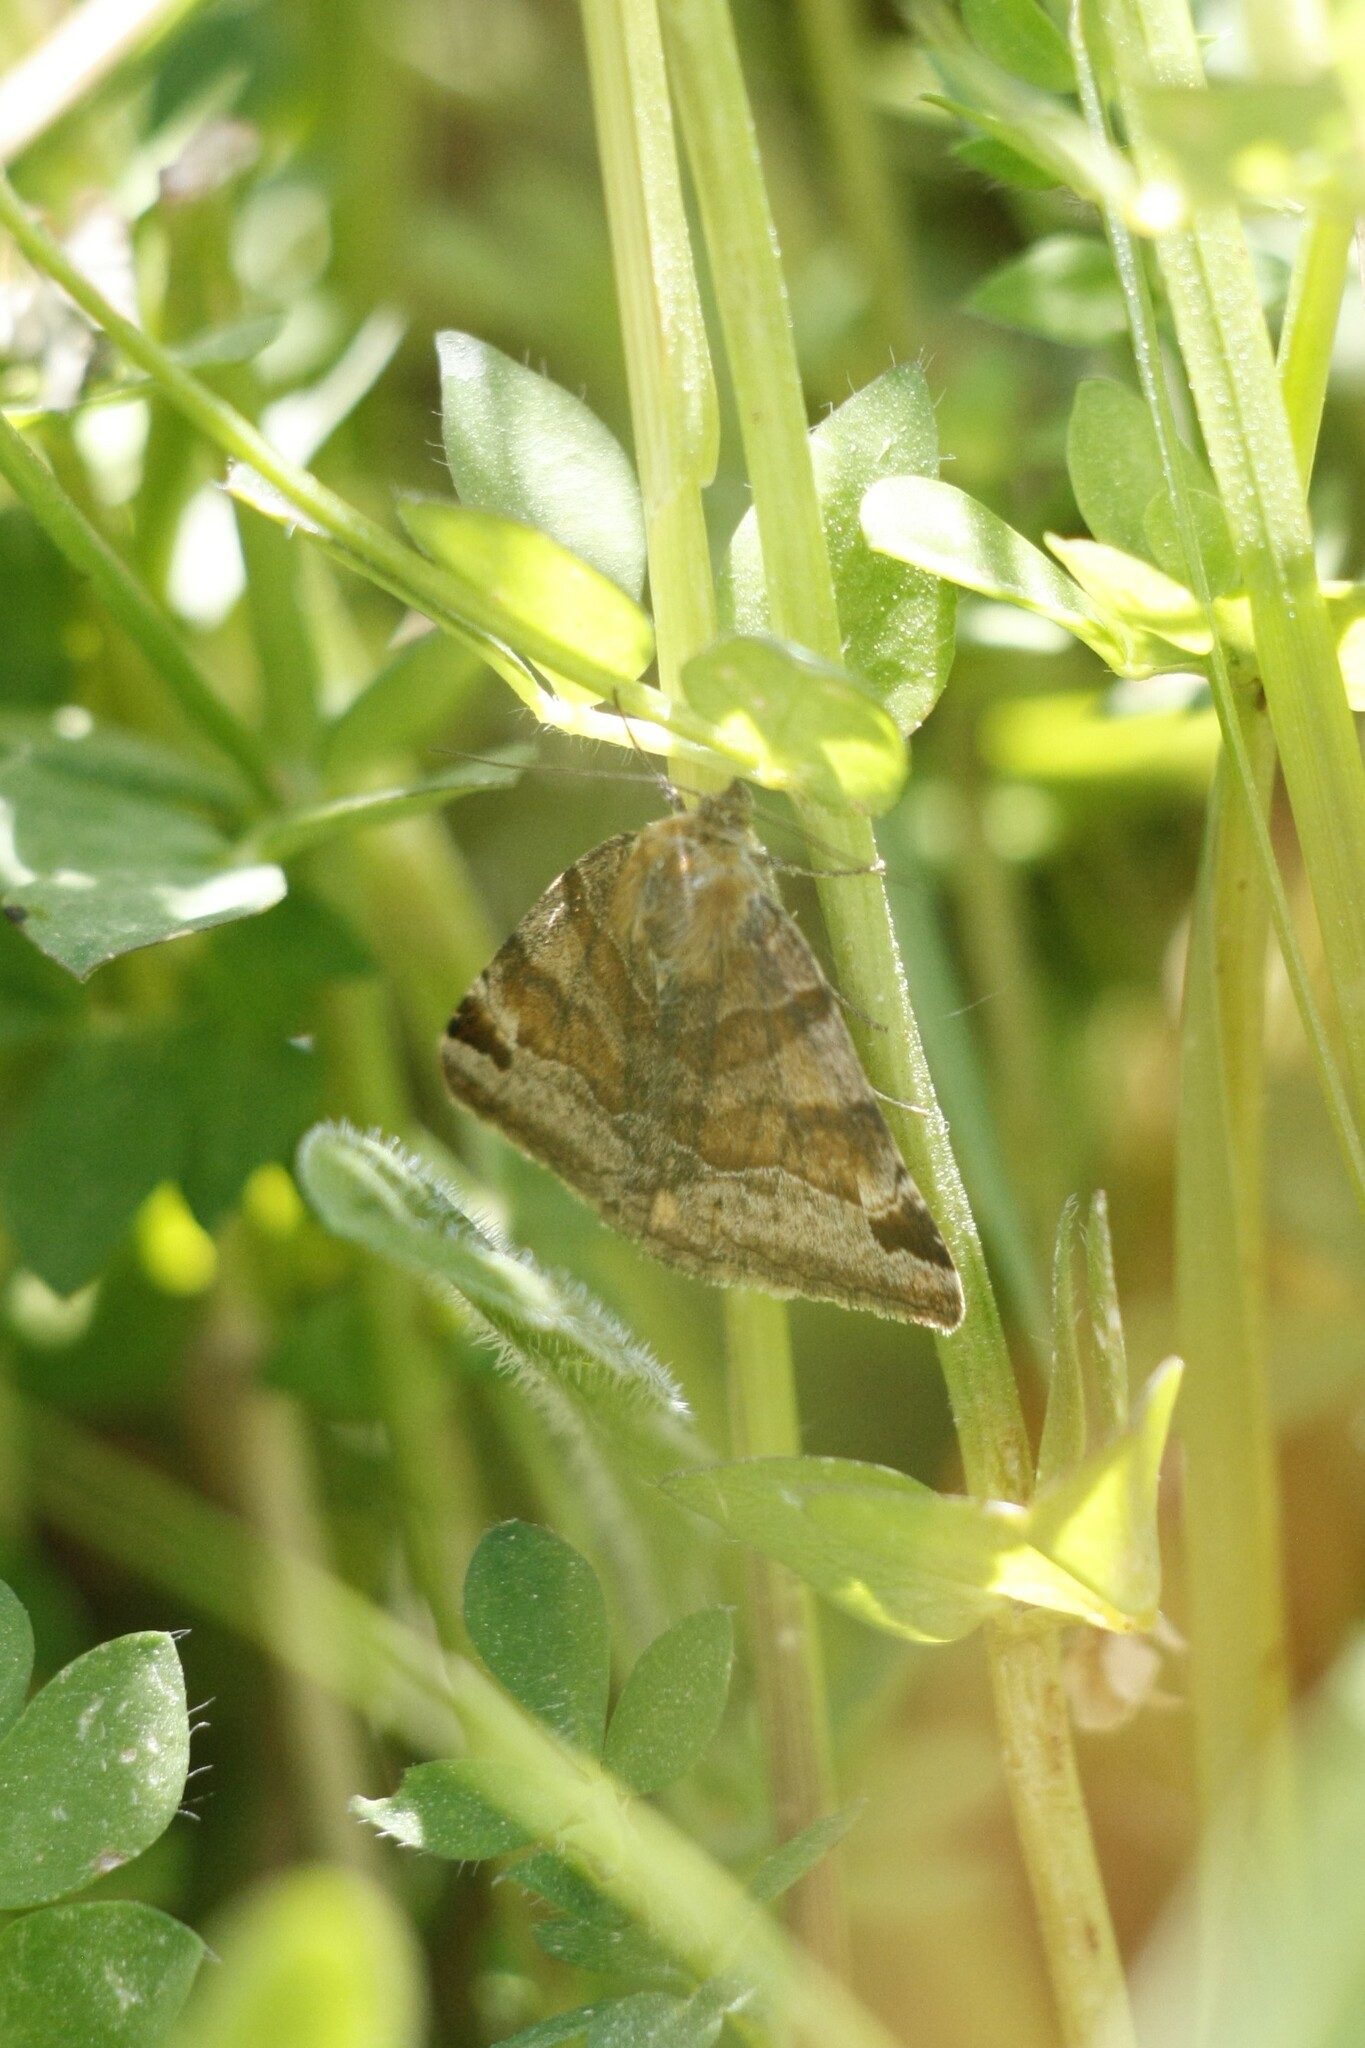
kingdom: Animalia
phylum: Arthropoda
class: Insecta
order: Lepidoptera
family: Erebidae
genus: Euclidia
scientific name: Euclidia glyphica
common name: Burnet companion
